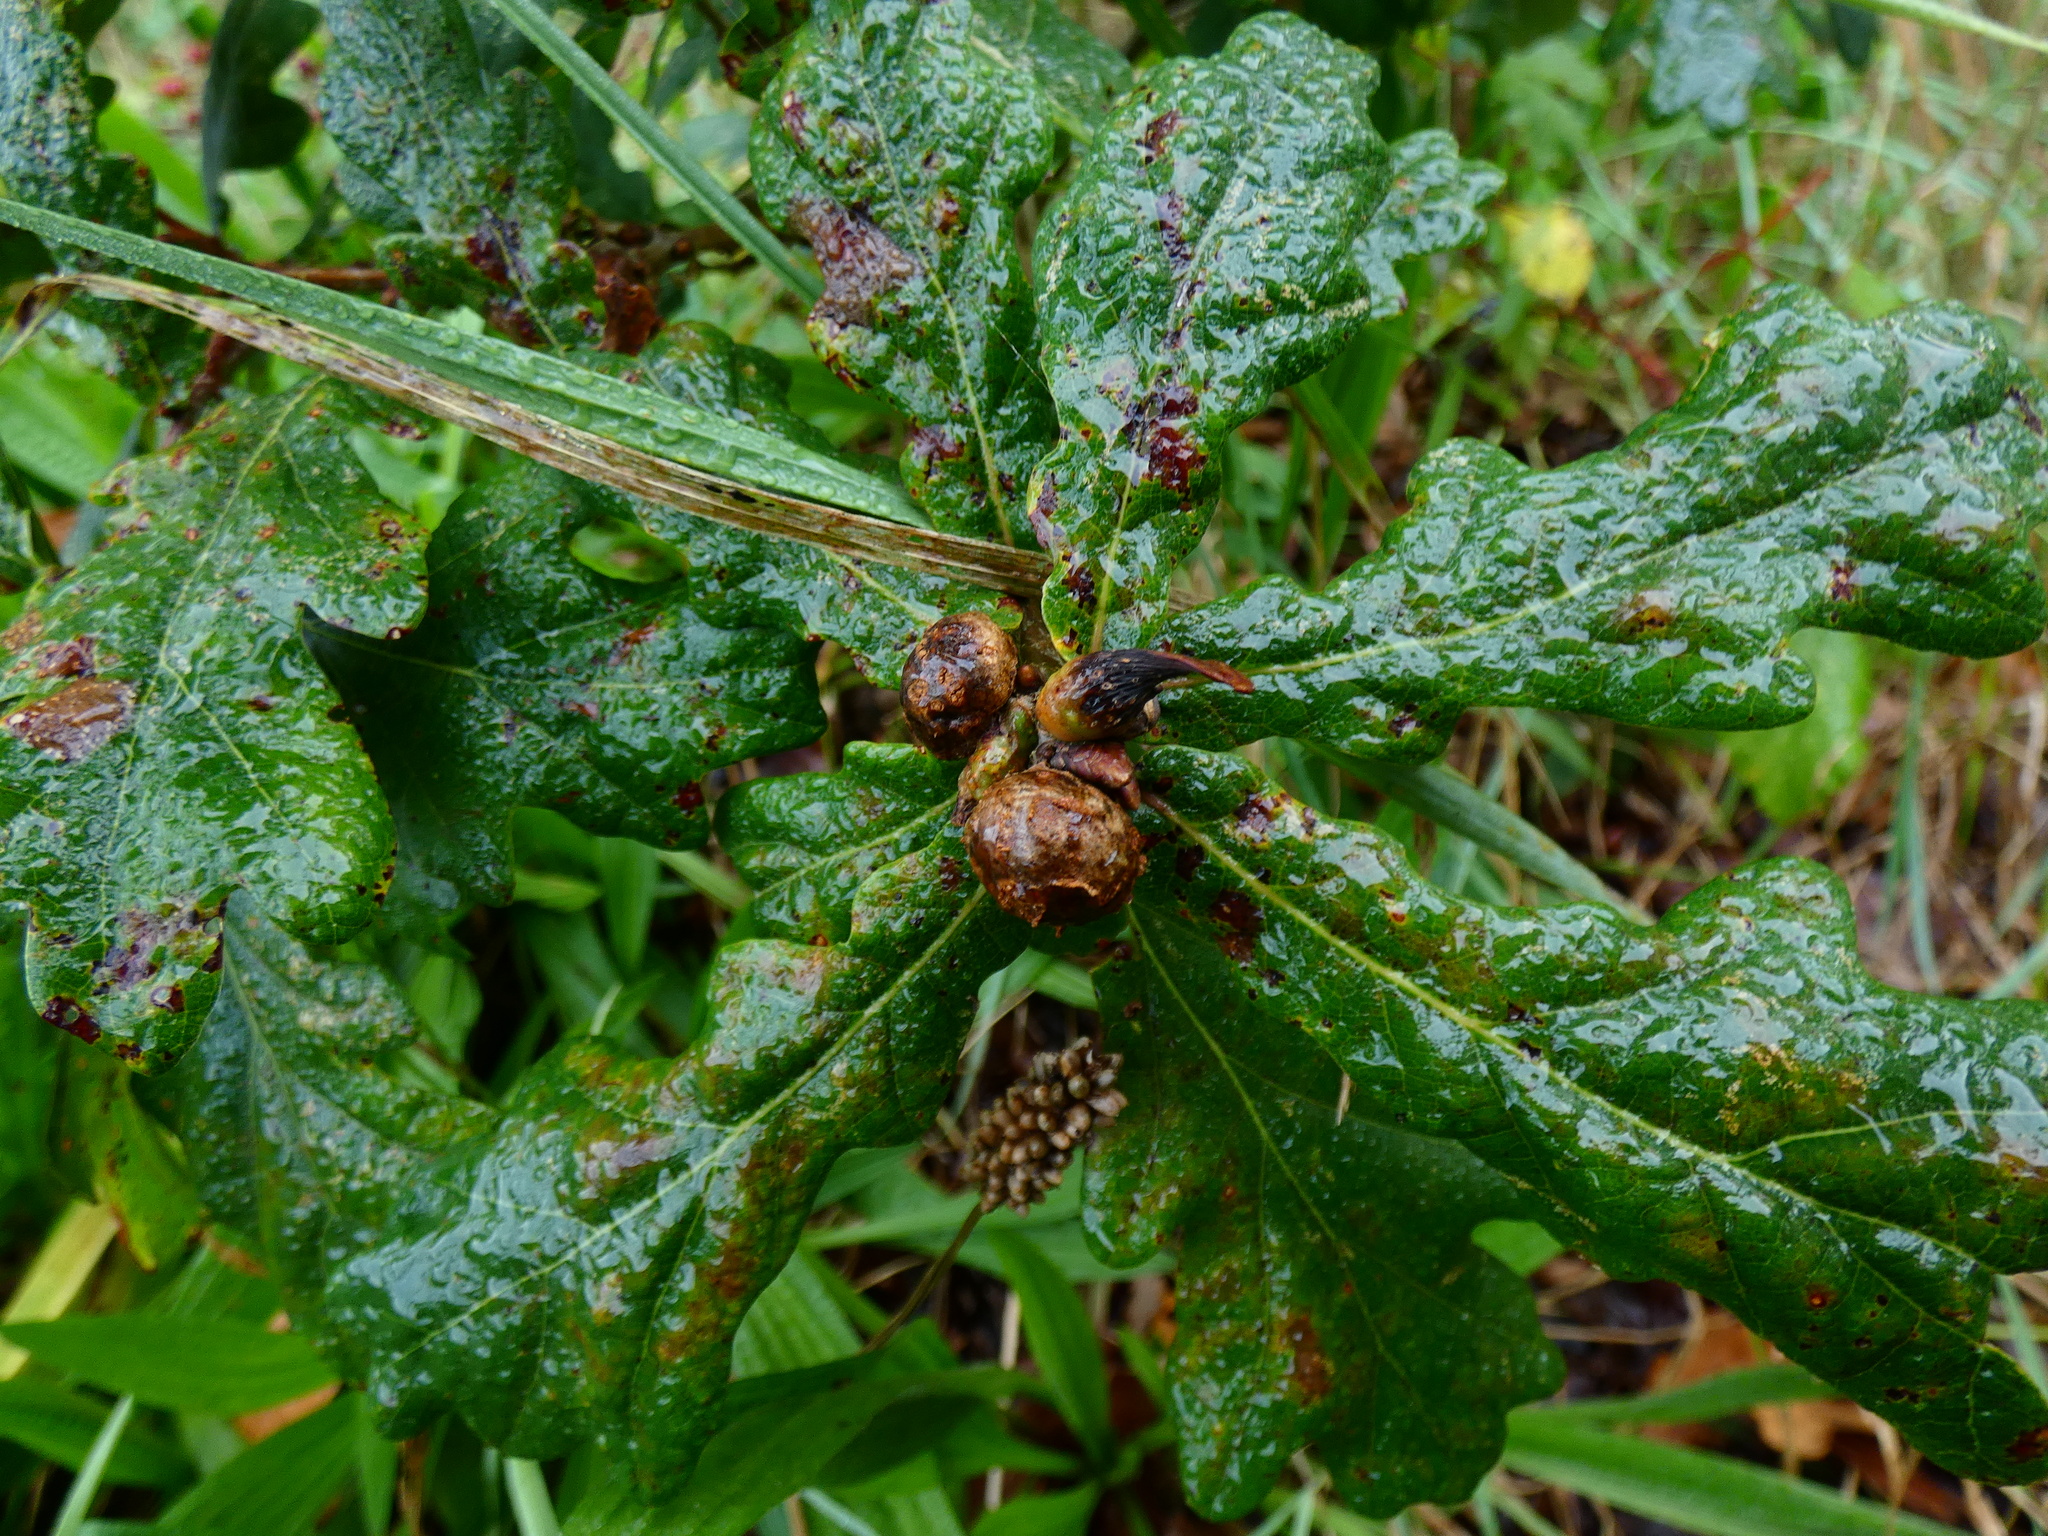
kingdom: Animalia
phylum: Arthropoda
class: Insecta
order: Hymenoptera
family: Cynipidae
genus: Andricus
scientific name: Andricus lignicolus
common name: Cola-nut gall
